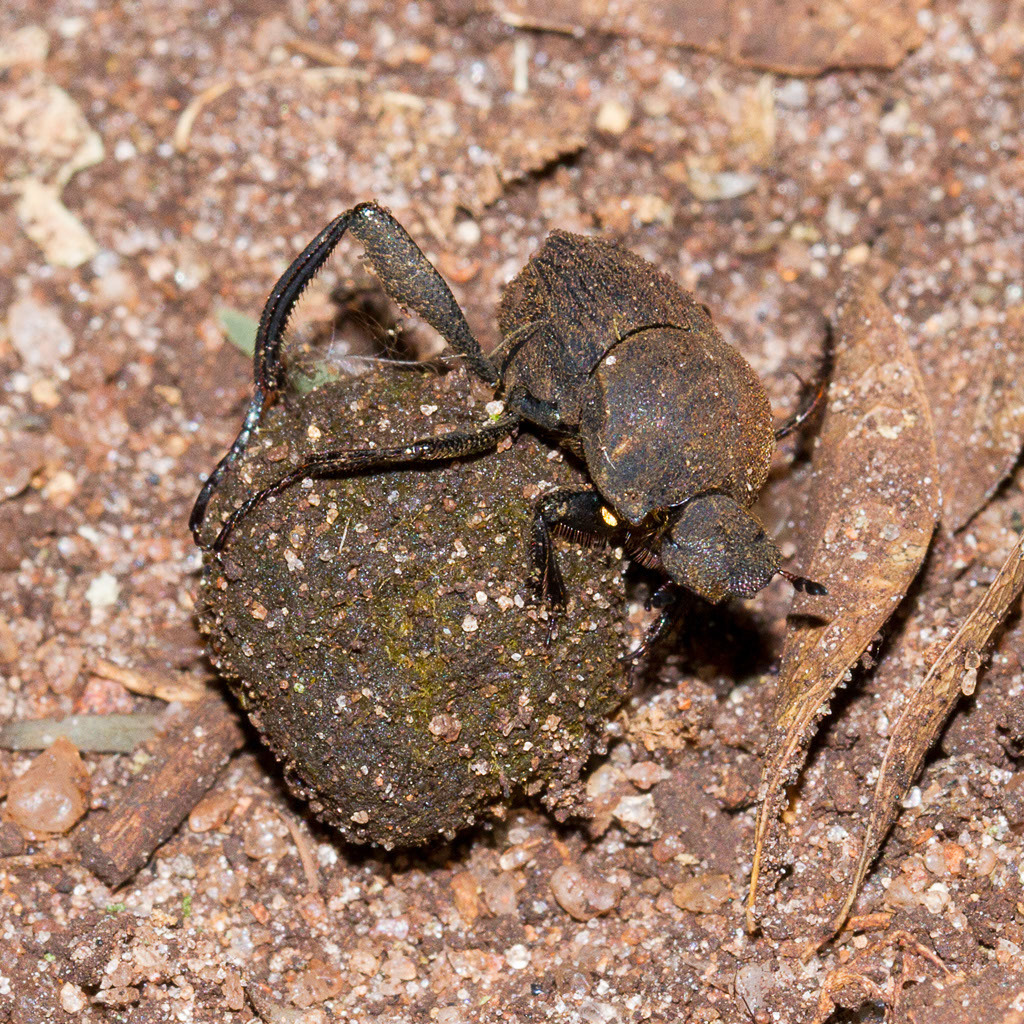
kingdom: Animalia
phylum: Arthropoda
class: Insecta
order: Coleoptera
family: Scarabaeidae
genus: Sisyphus
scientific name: Sisyphus impressipennis
